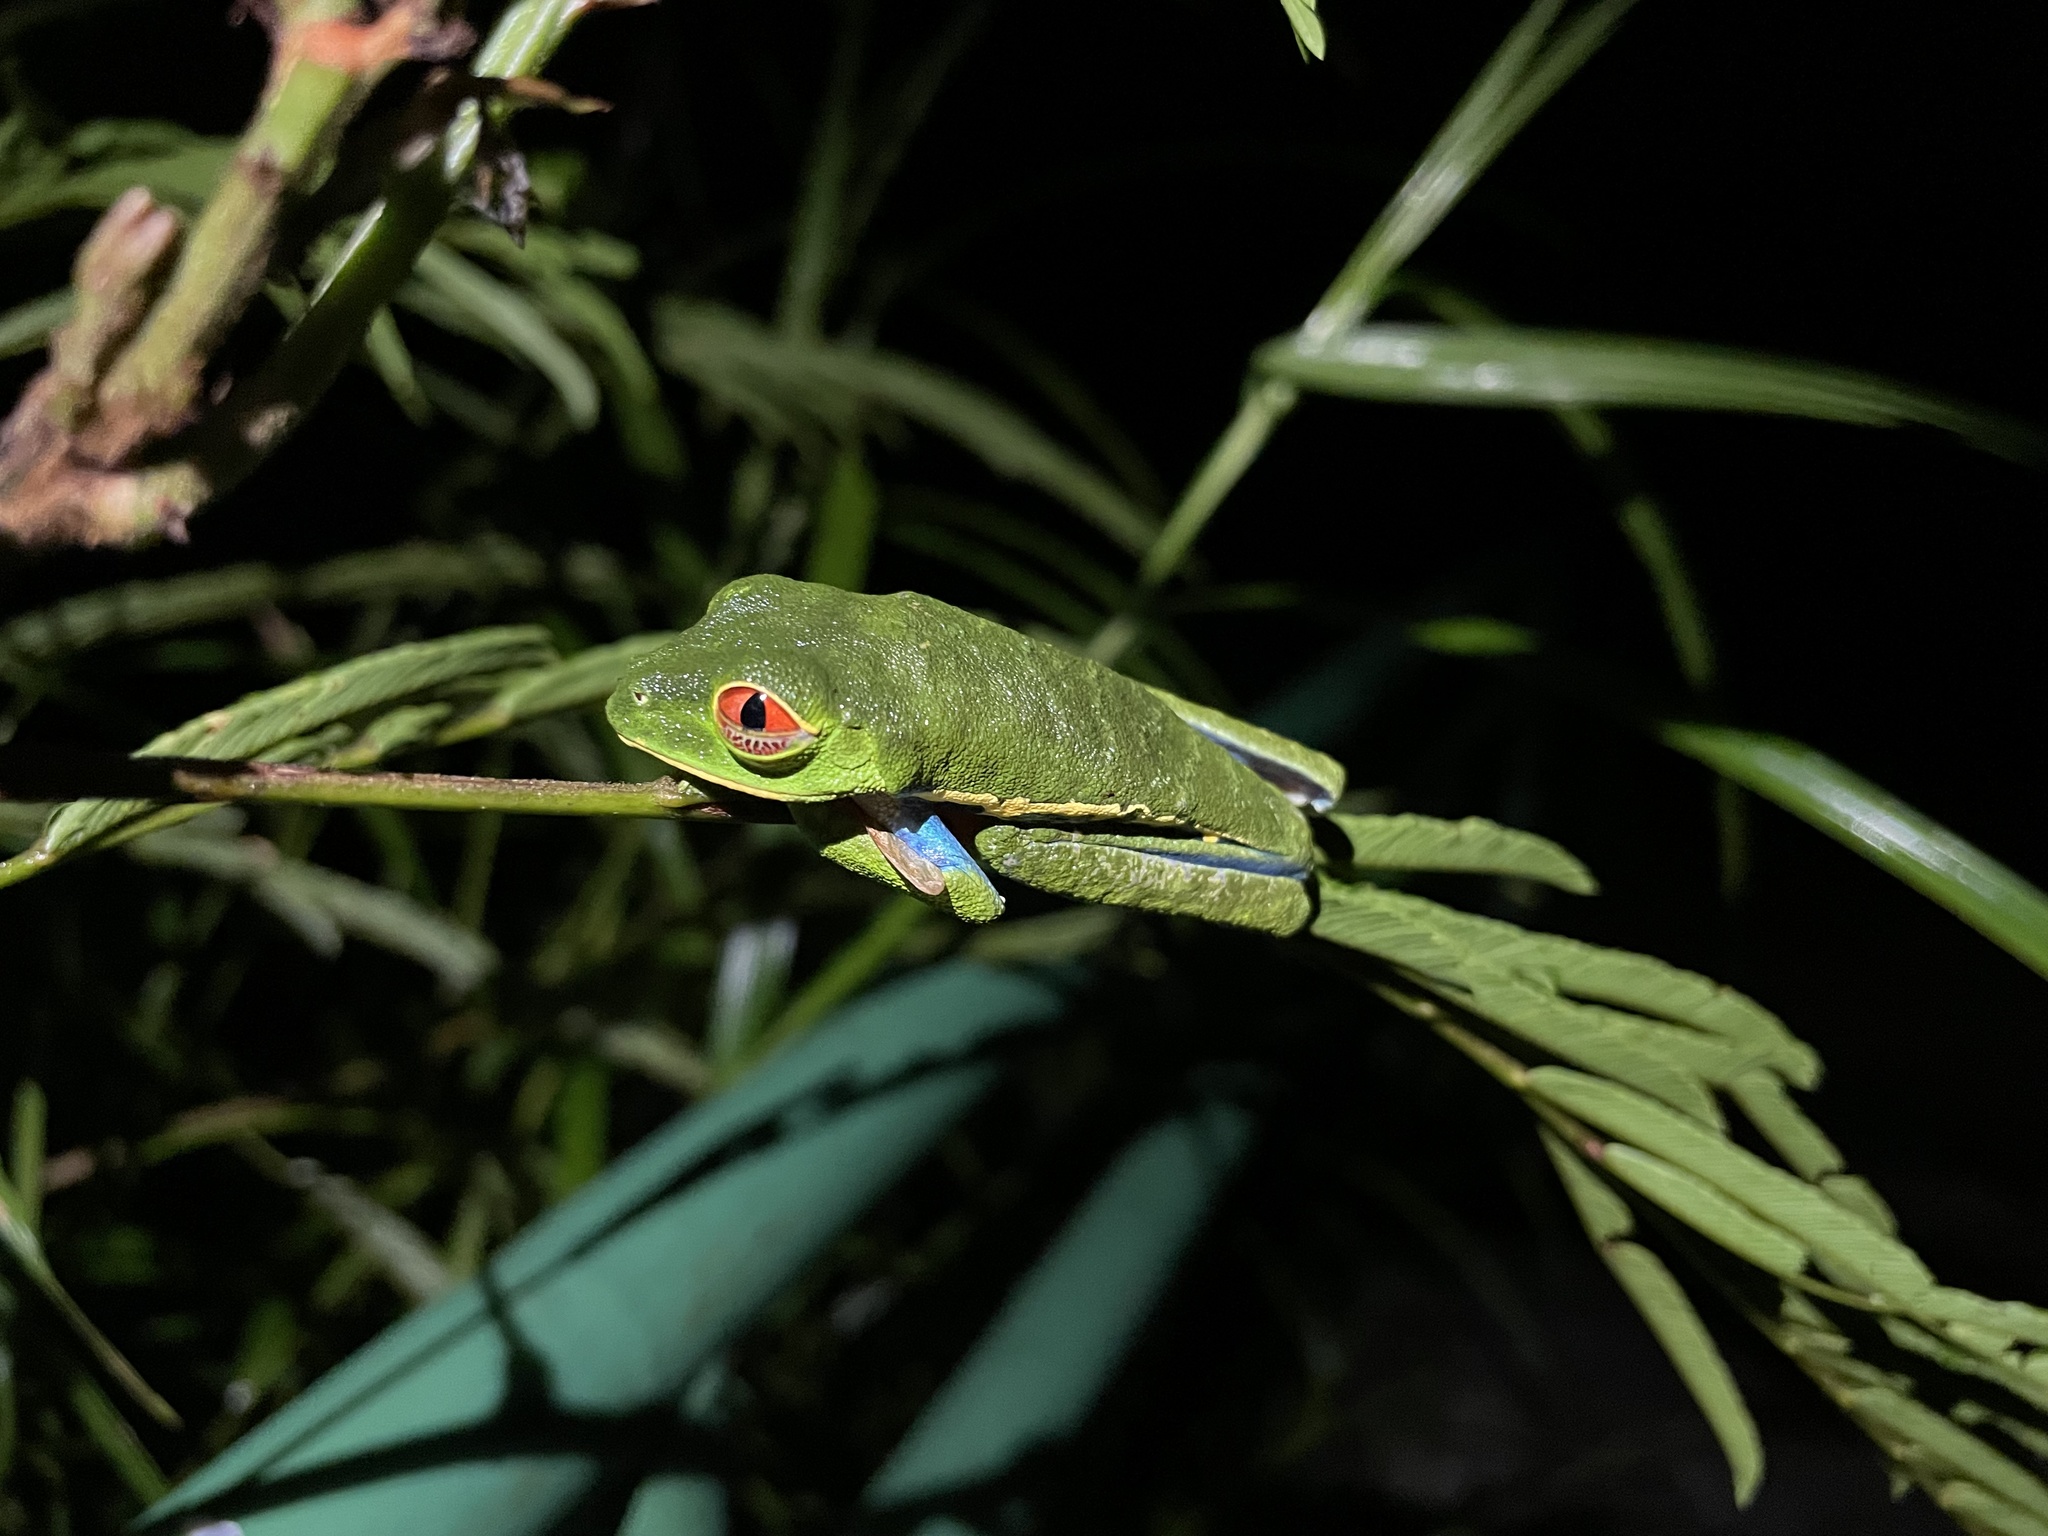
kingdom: Animalia
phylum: Chordata
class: Amphibia
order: Anura
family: Phyllomedusidae
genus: Agalychnis
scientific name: Agalychnis callidryas
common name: Red-eyed treefrog
